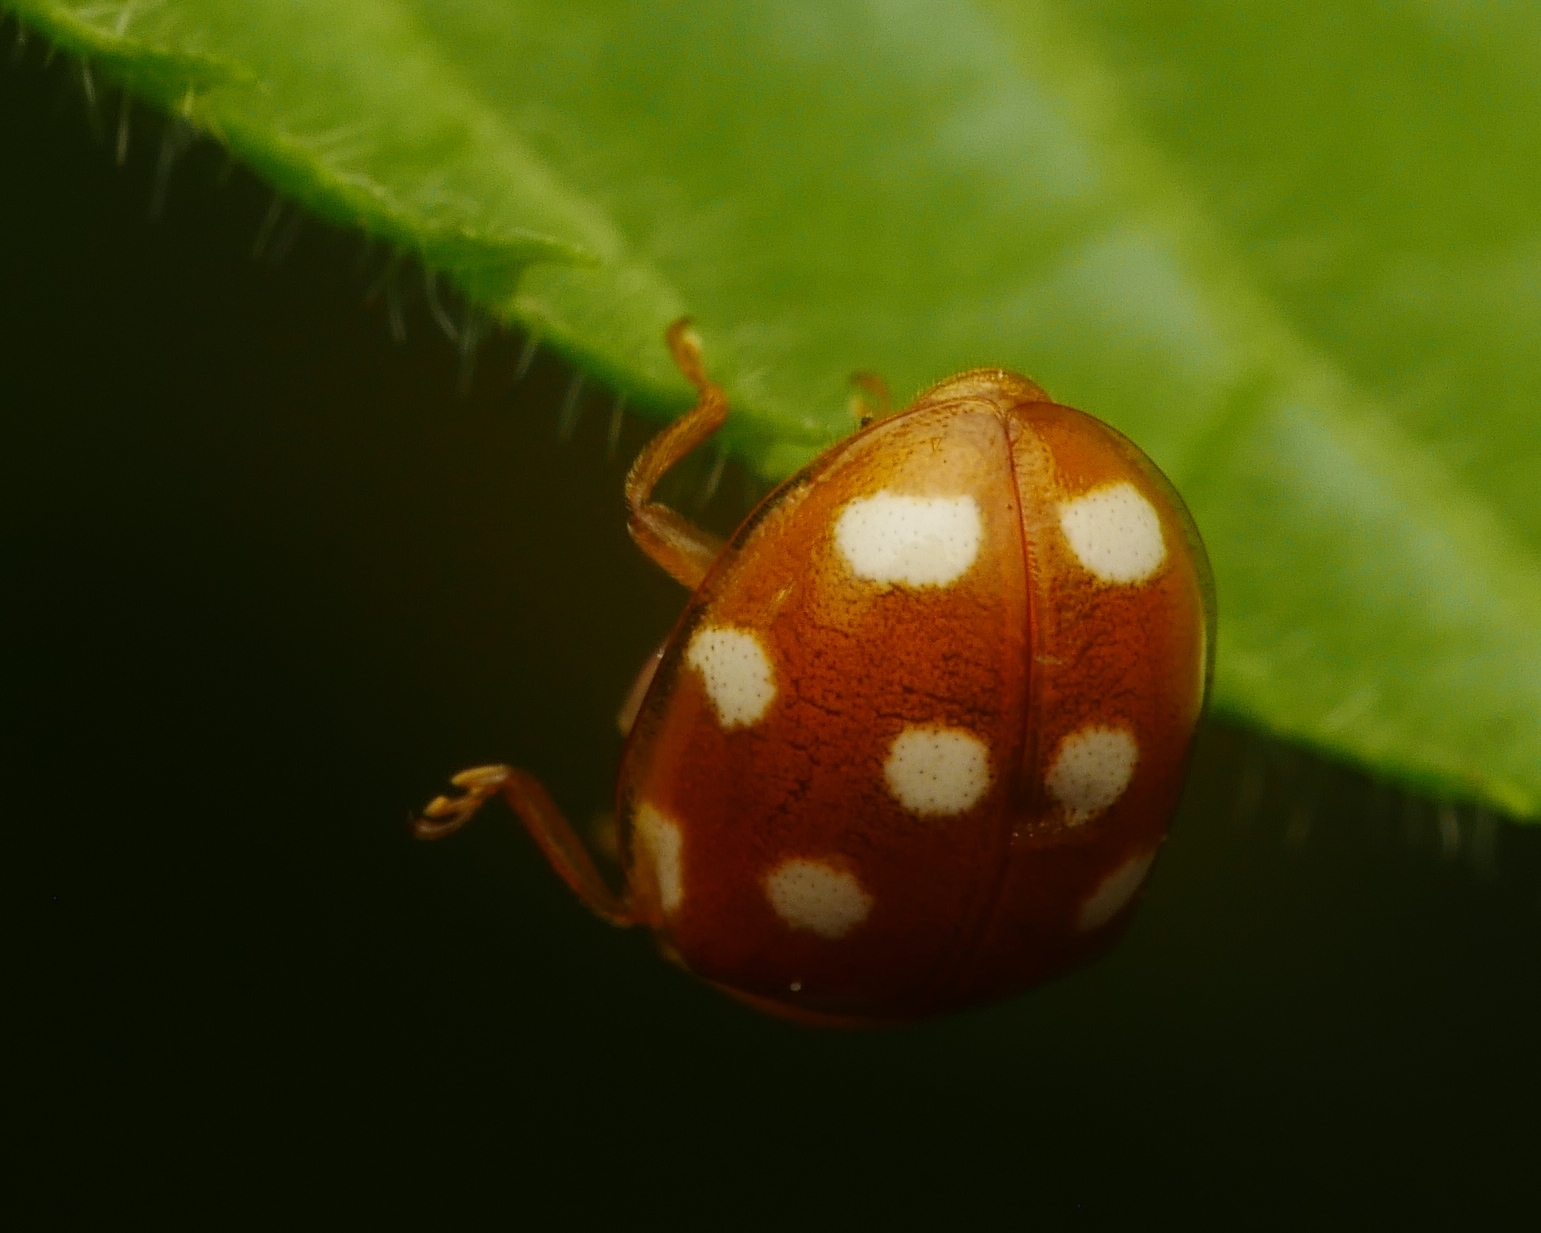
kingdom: Animalia
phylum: Arthropoda
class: Insecta
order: Coleoptera
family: Coccinellidae
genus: Vibidia
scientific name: Vibidia duodecimguttata
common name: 12-spot ladybird
